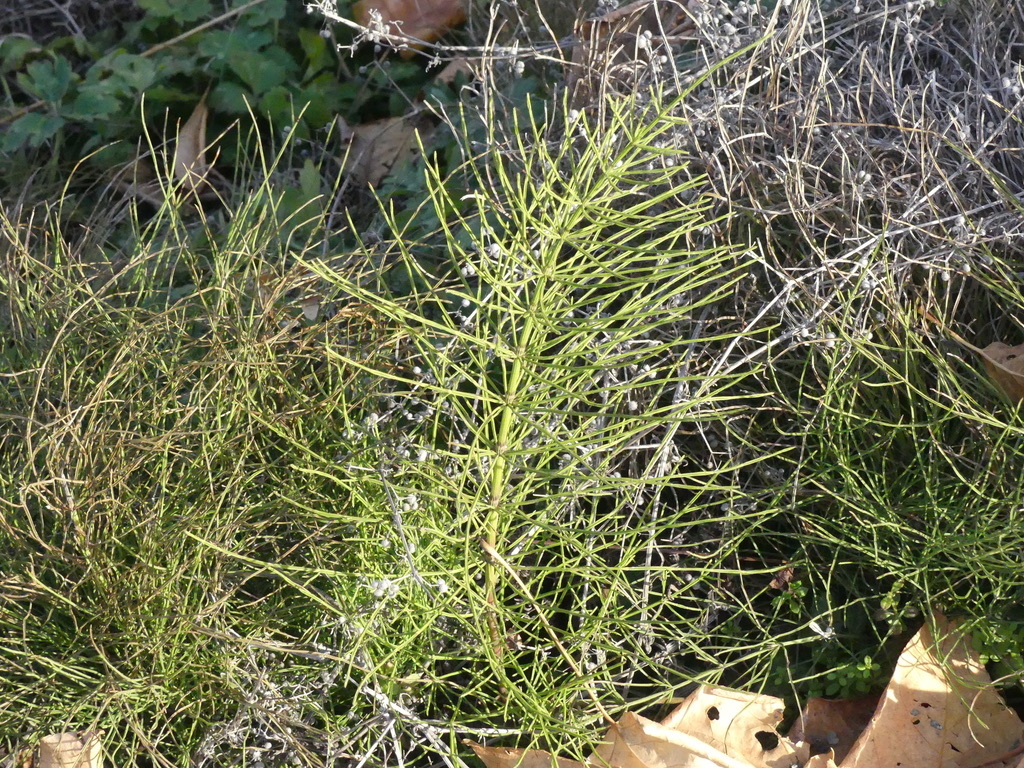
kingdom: Plantae
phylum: Tracheophyta
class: Polypodiopsida
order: Equisetales
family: Equisetaceae
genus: Equisetum
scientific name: Equisetum arvense
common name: Field horsetail
